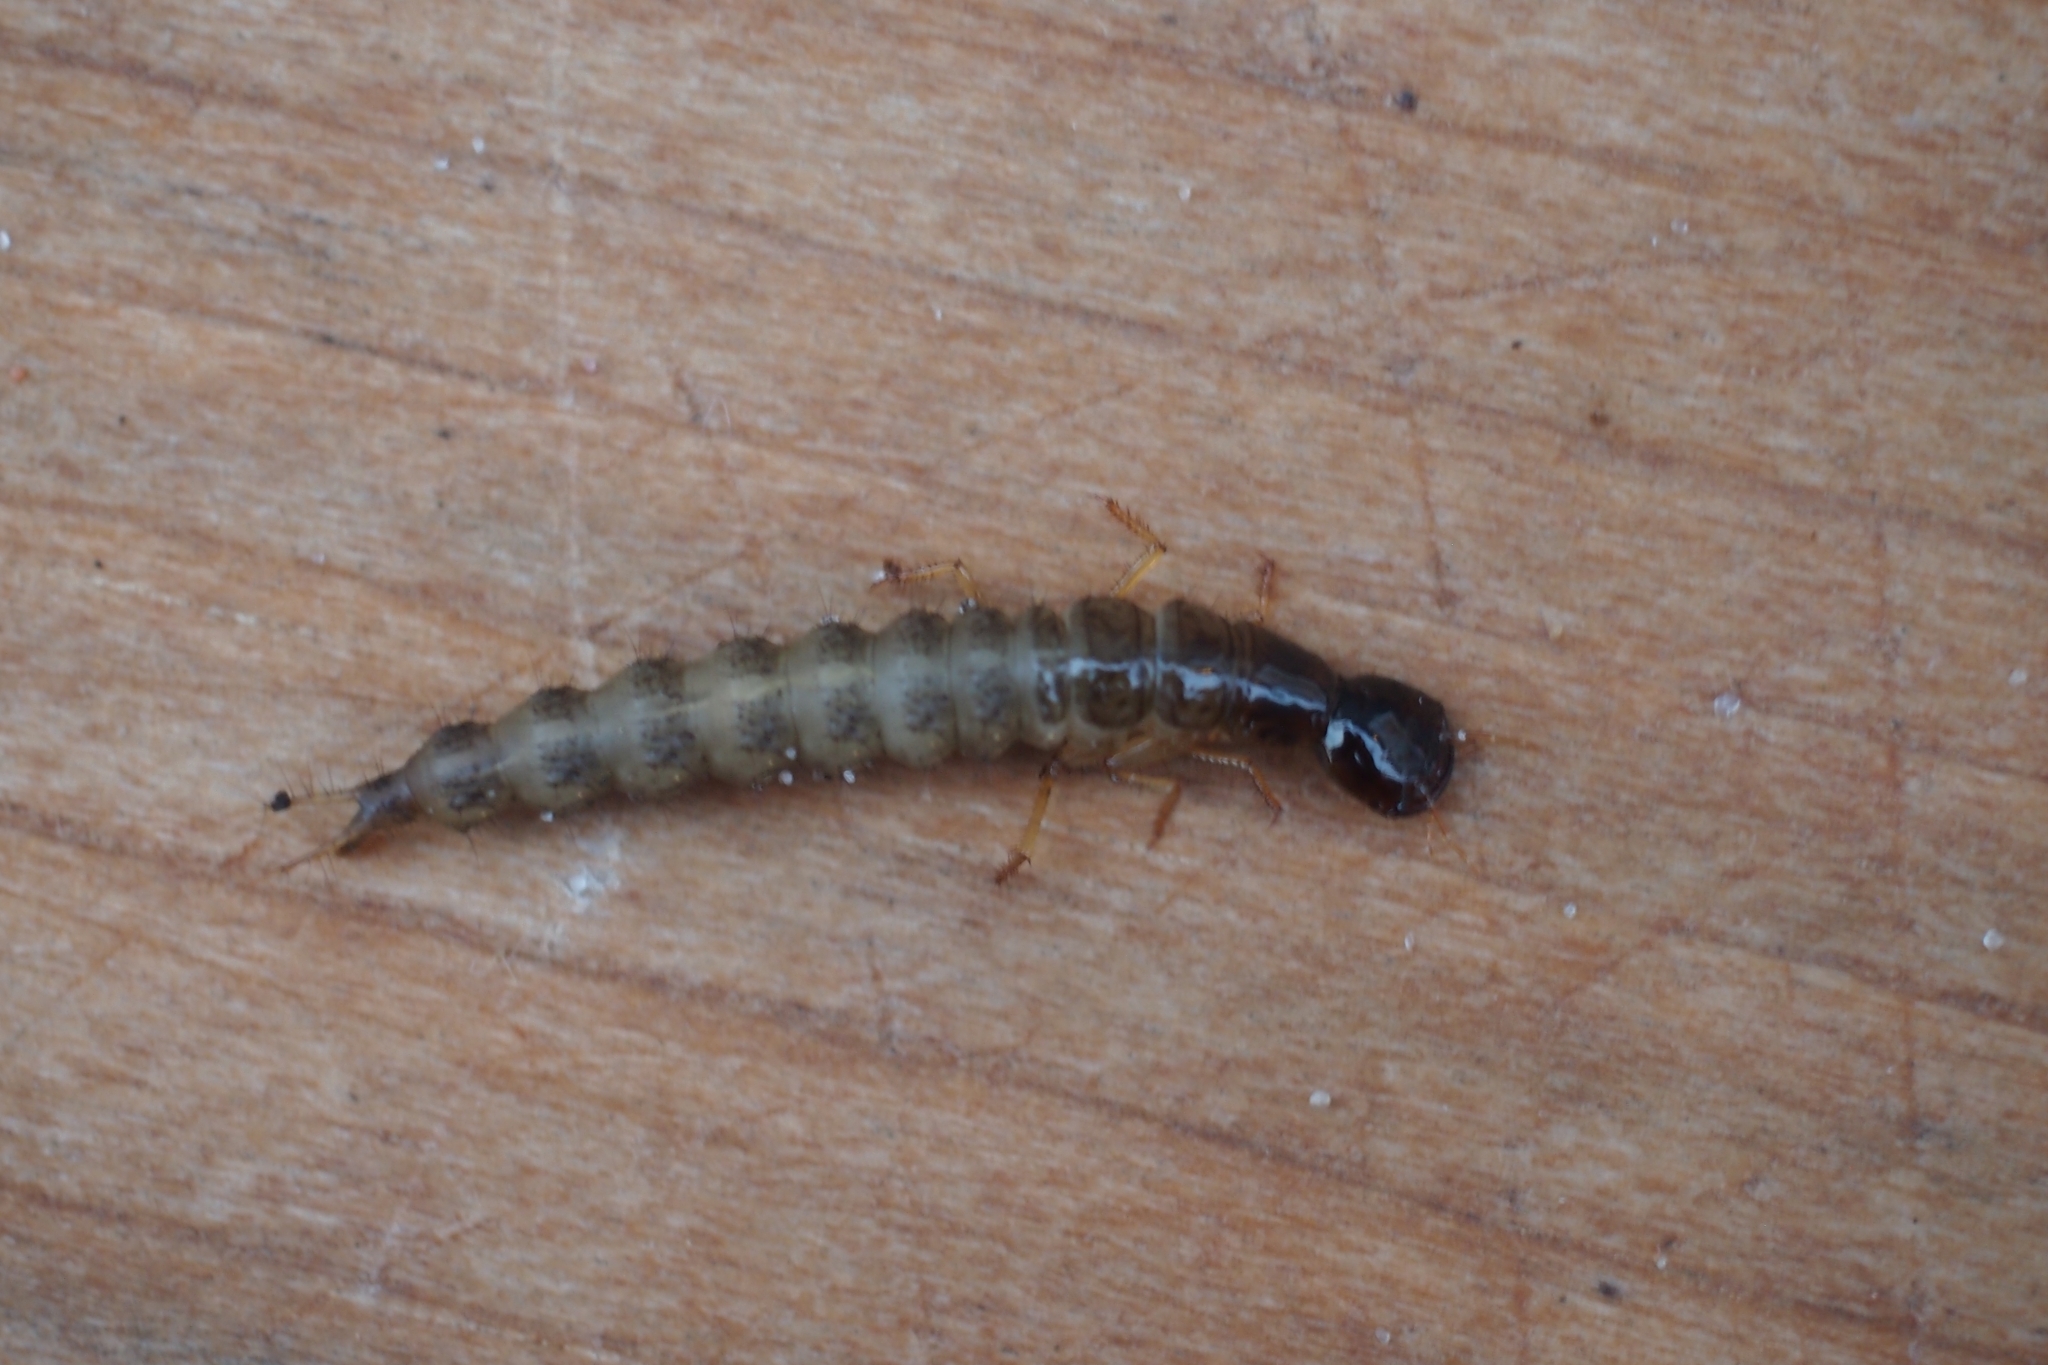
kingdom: Animalia
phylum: Arthropoda
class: Insecta
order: Coleoptera
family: Staphylinidae
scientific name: Staphylinidae
